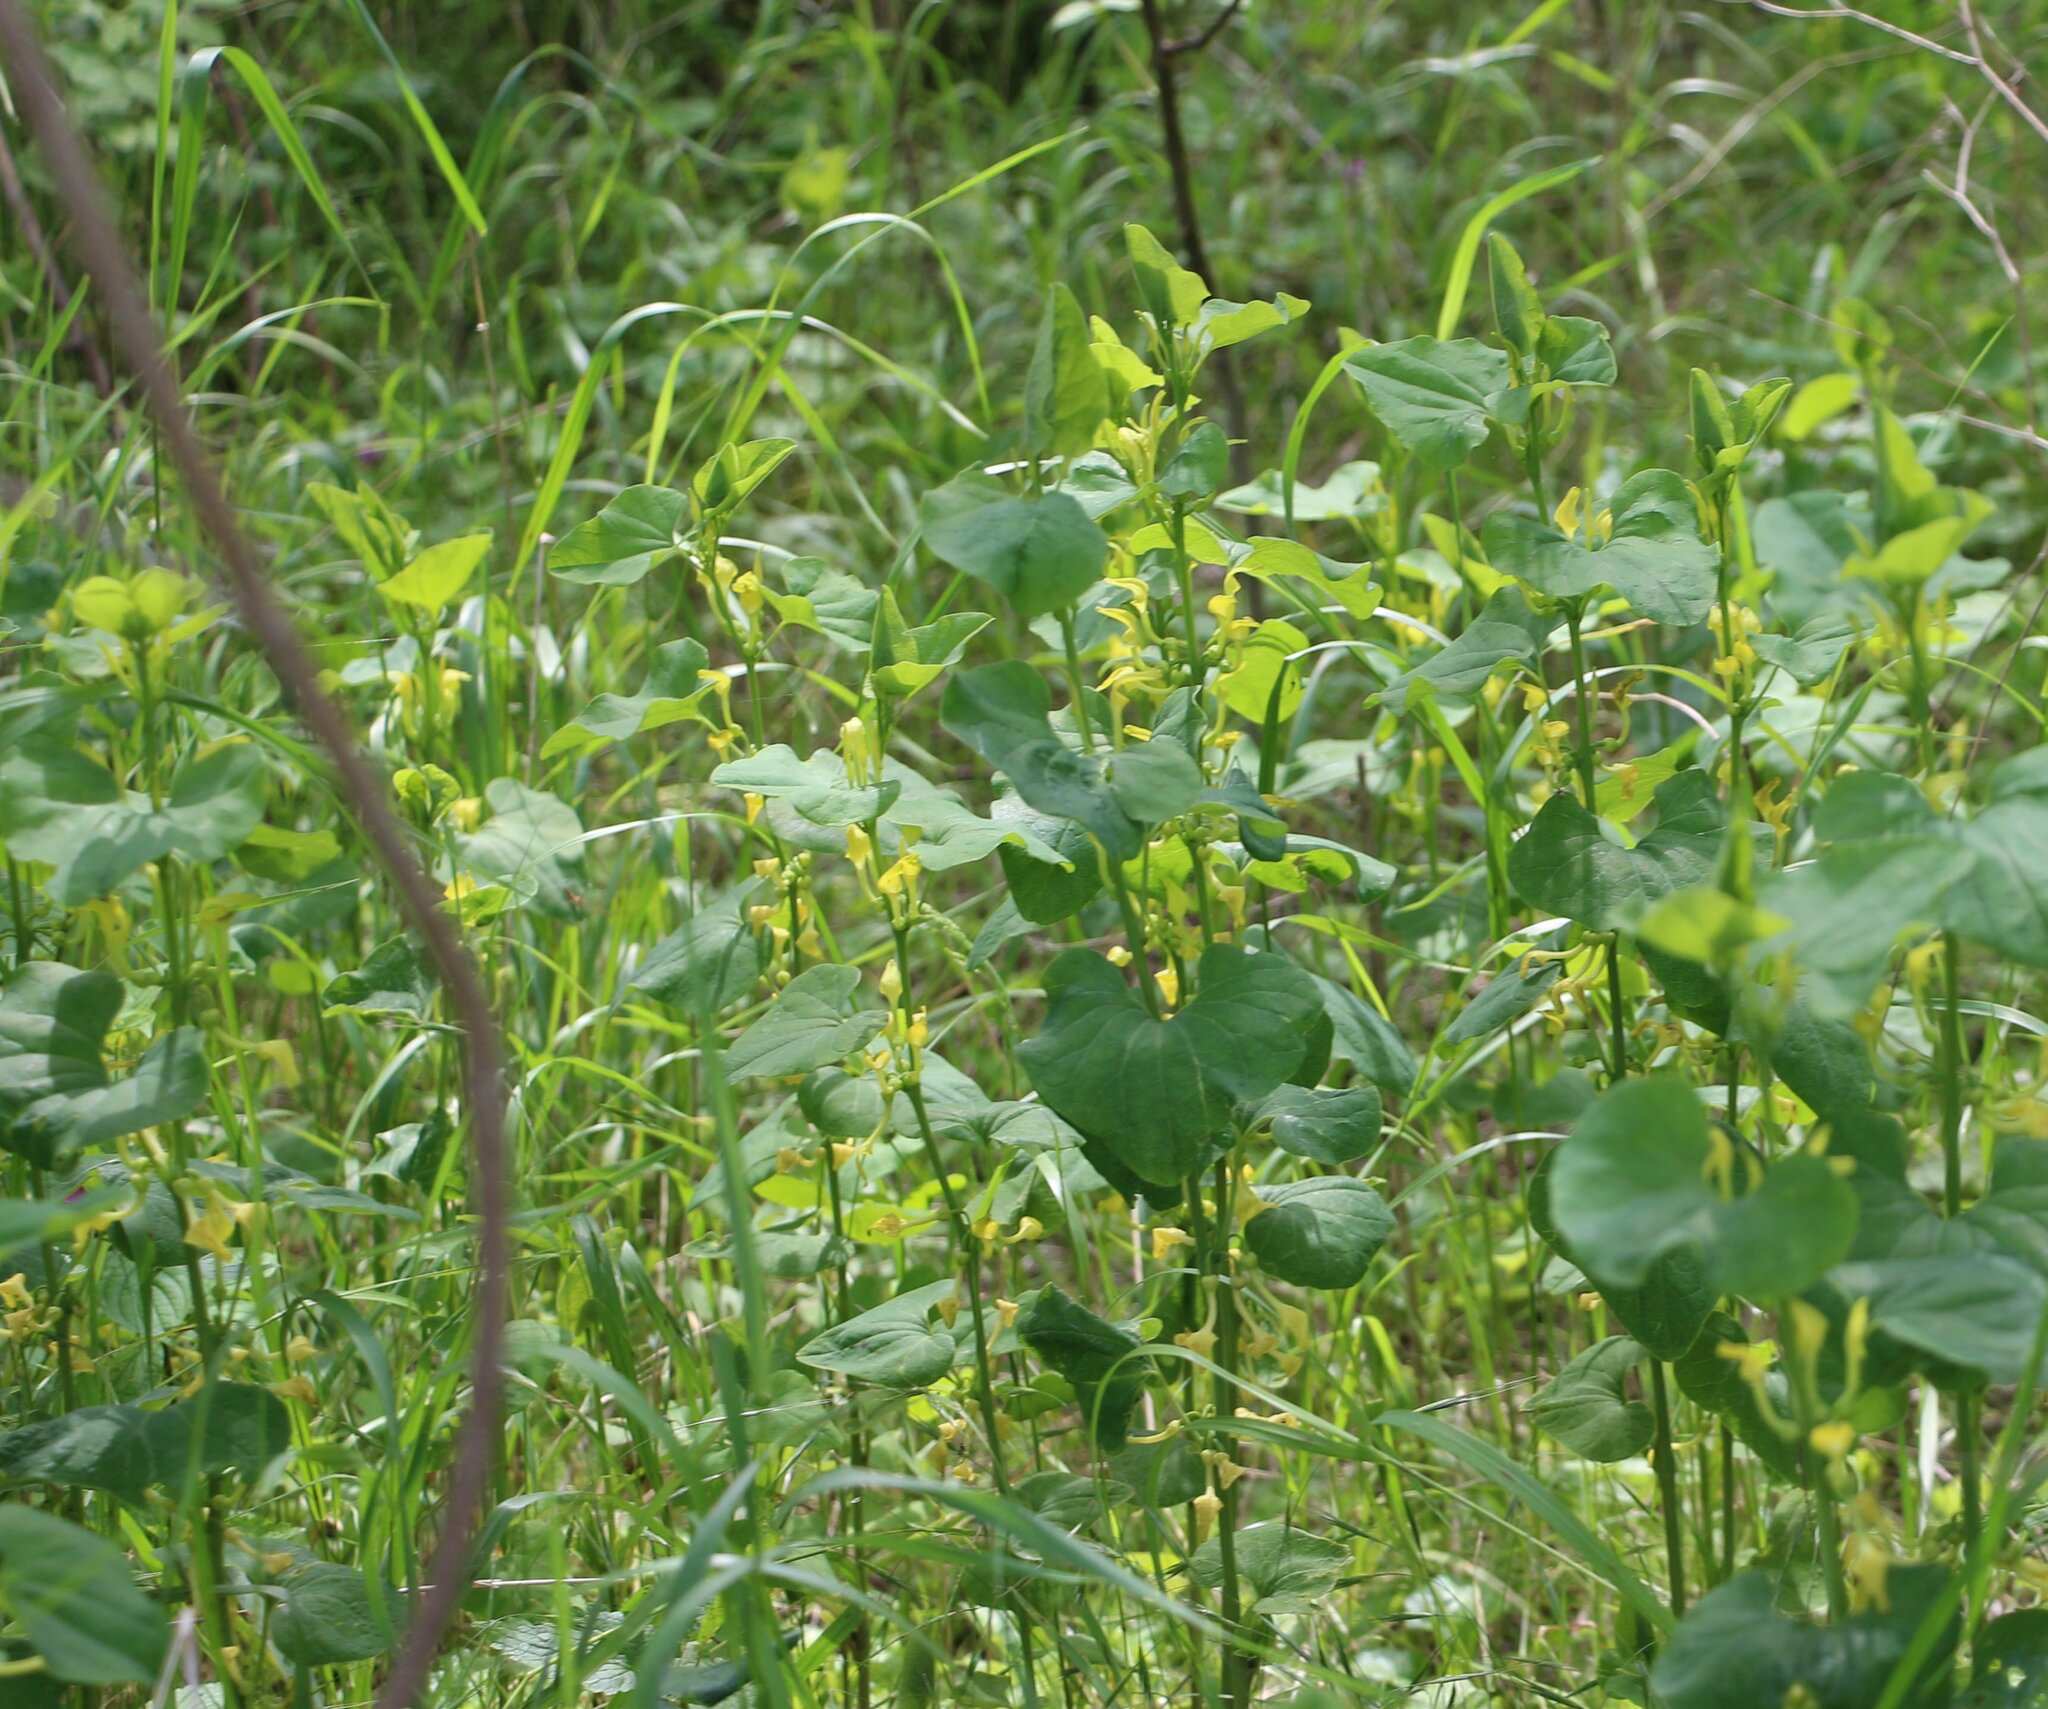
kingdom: Plantae
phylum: Tracheophyta
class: Magnoliopsida
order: Piperales
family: Aristolochiaceae
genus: Aristolochia
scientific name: Aristolochia clematitis
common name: Birthwort
